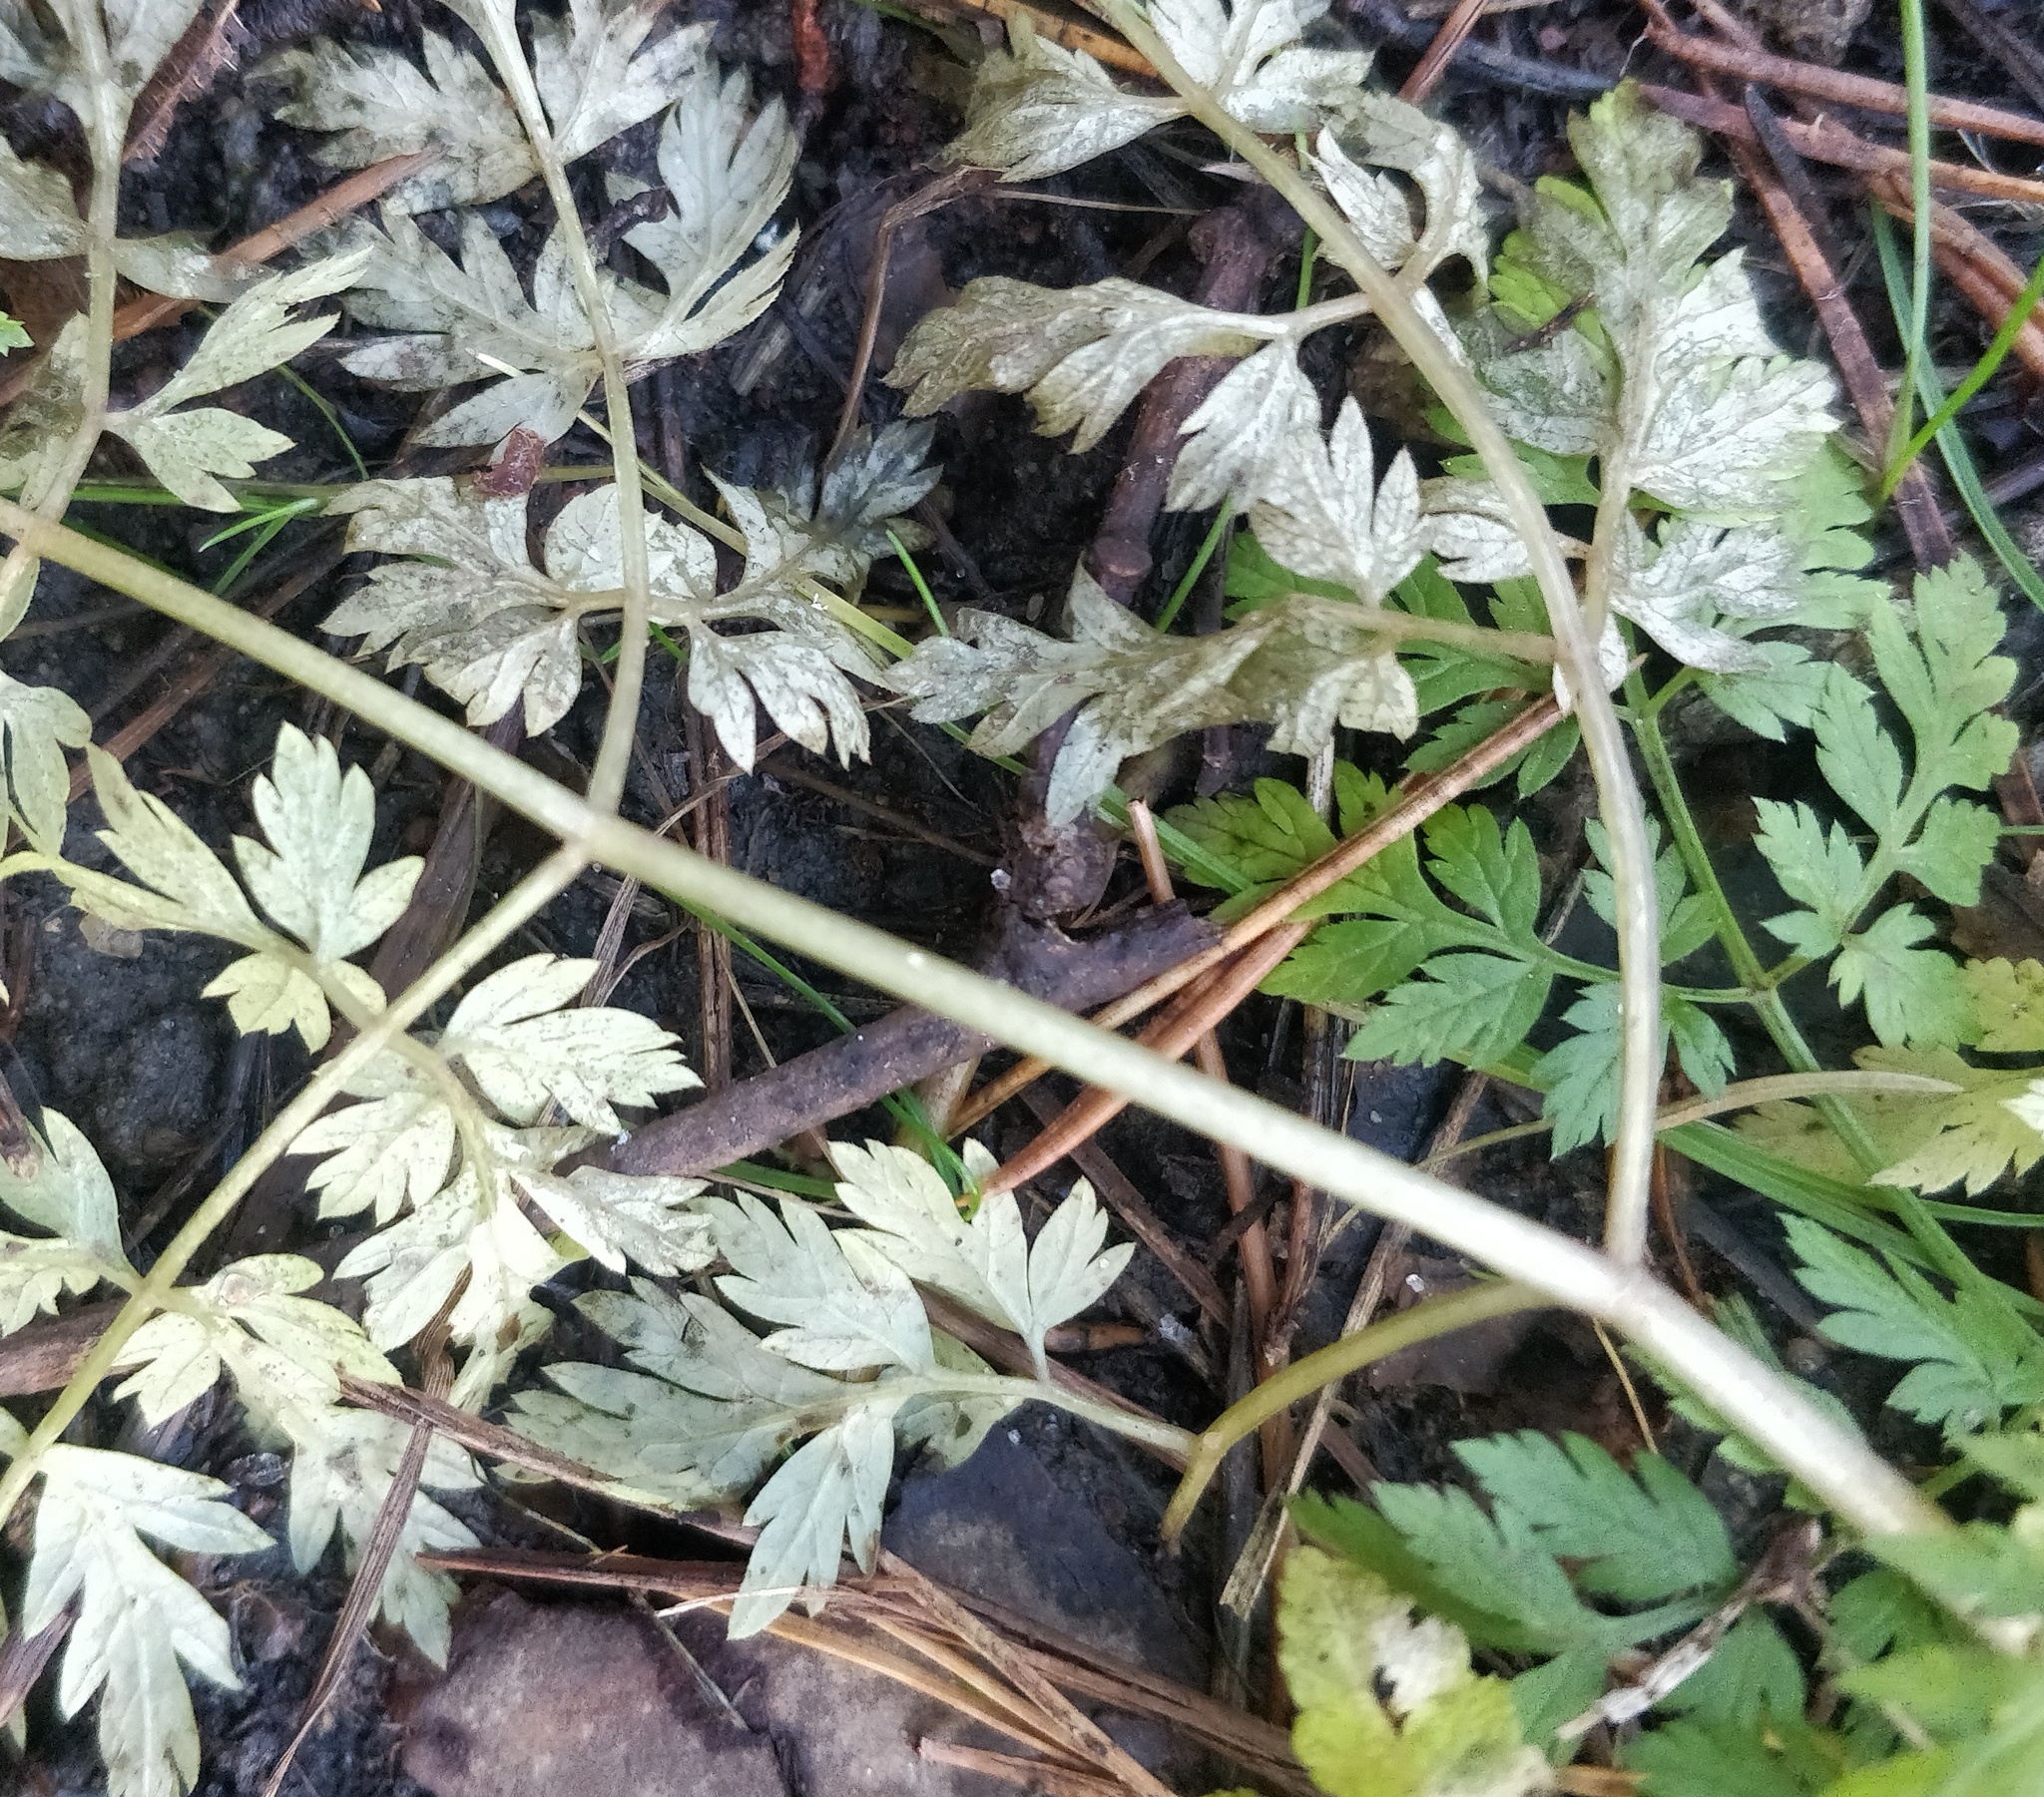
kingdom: Plantae
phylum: Tracheophyta
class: Magnoliopsida
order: Apiales
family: Apiaceae
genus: Anthriscus
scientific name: Anthriscus sylvestris
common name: Cow parsley
